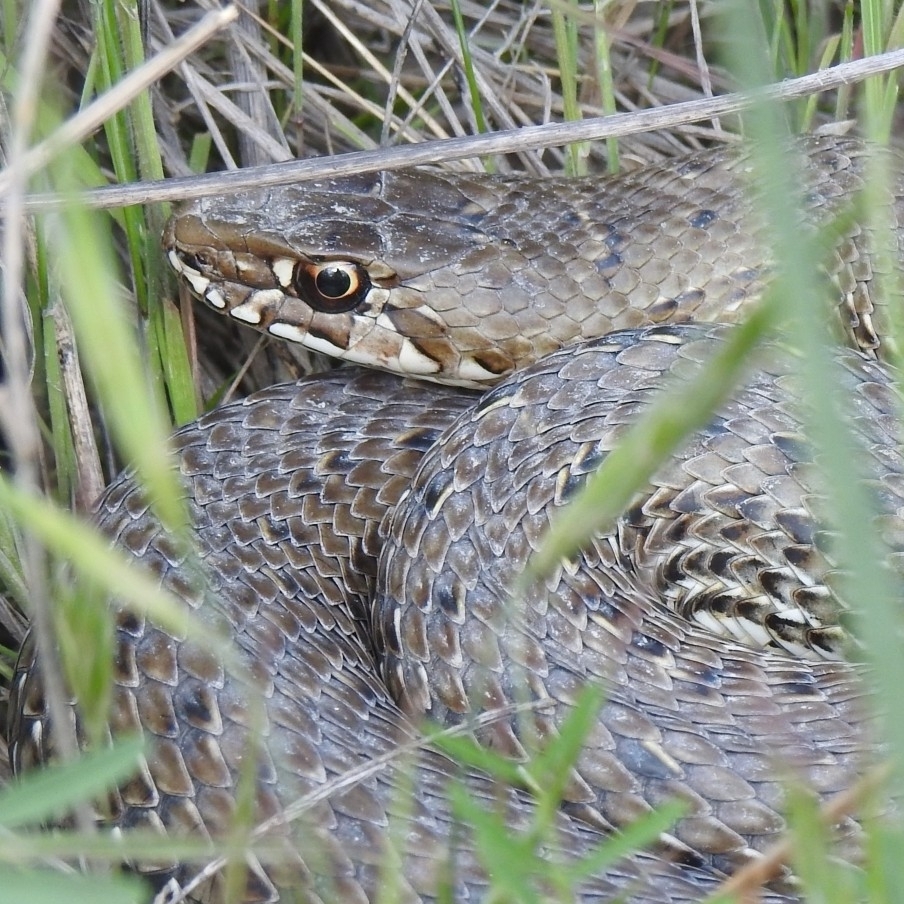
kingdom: Animalia
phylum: Chordata
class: Squamata
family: Psammophiidae
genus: Malpolon
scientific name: Malpolon monspessulanus
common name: Montpellier snake
